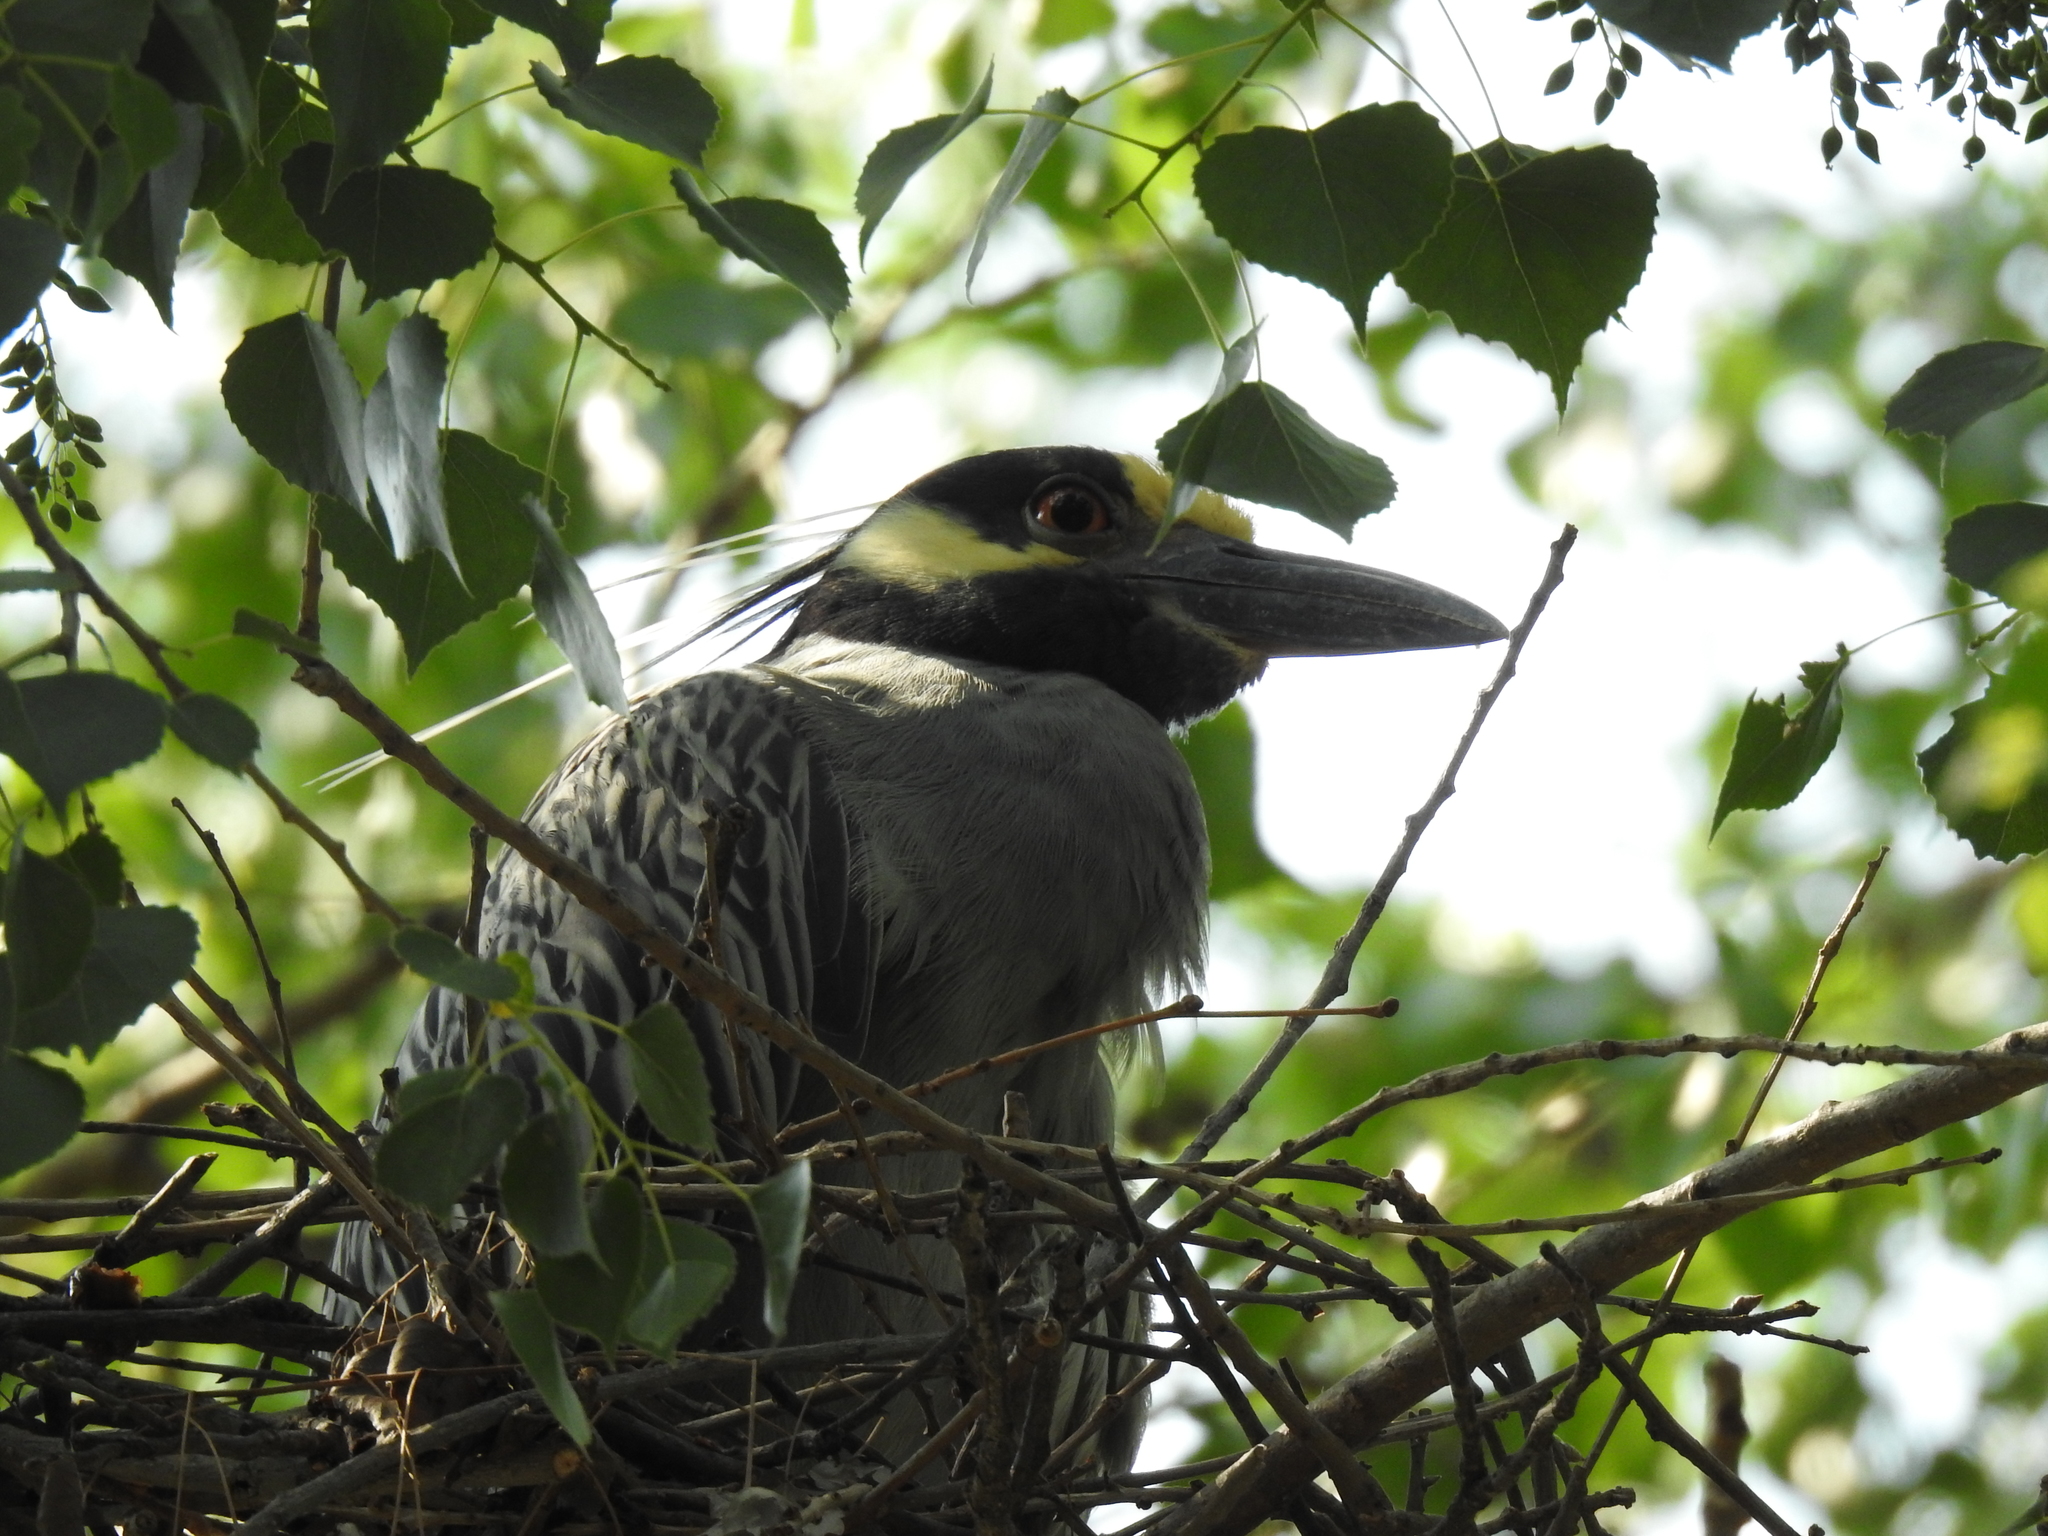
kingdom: Animalia
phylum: Chordata
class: Aves
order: Pelecaniformes
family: Ardeidae
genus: Nyctanassa
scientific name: Nyctanassa violacea
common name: Yellow-crowned night heron
